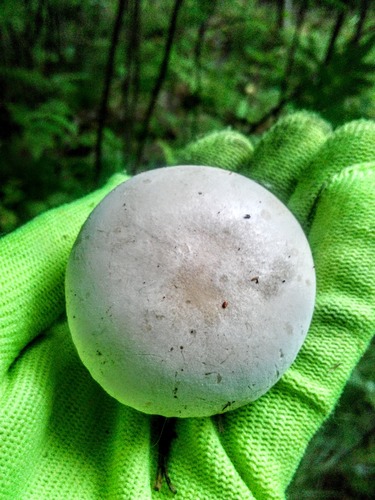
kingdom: Fungi
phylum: Basidiomycota
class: Agaricomycetes
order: Agaricales
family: Entolomataceae
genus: Clitopilus
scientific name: Clitopilus prunulus
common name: The miller
